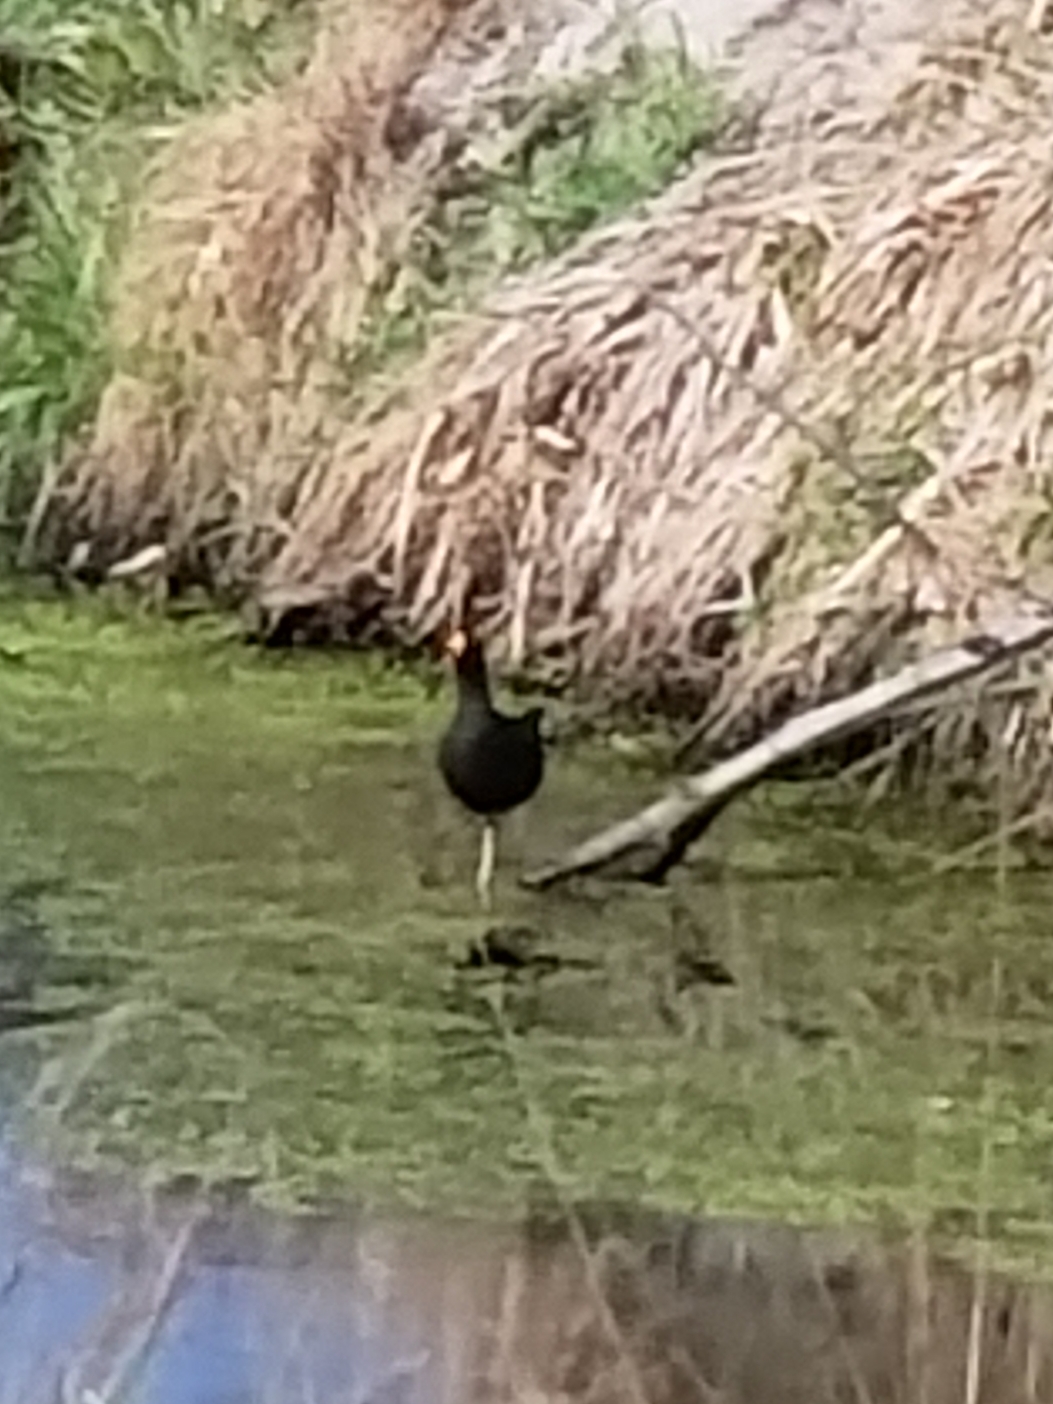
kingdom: Animalia
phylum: Chordata
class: Aves
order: Gruiformes
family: Rallidae
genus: Gallinula
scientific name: Gallinula chloropus
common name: Common moorhen
